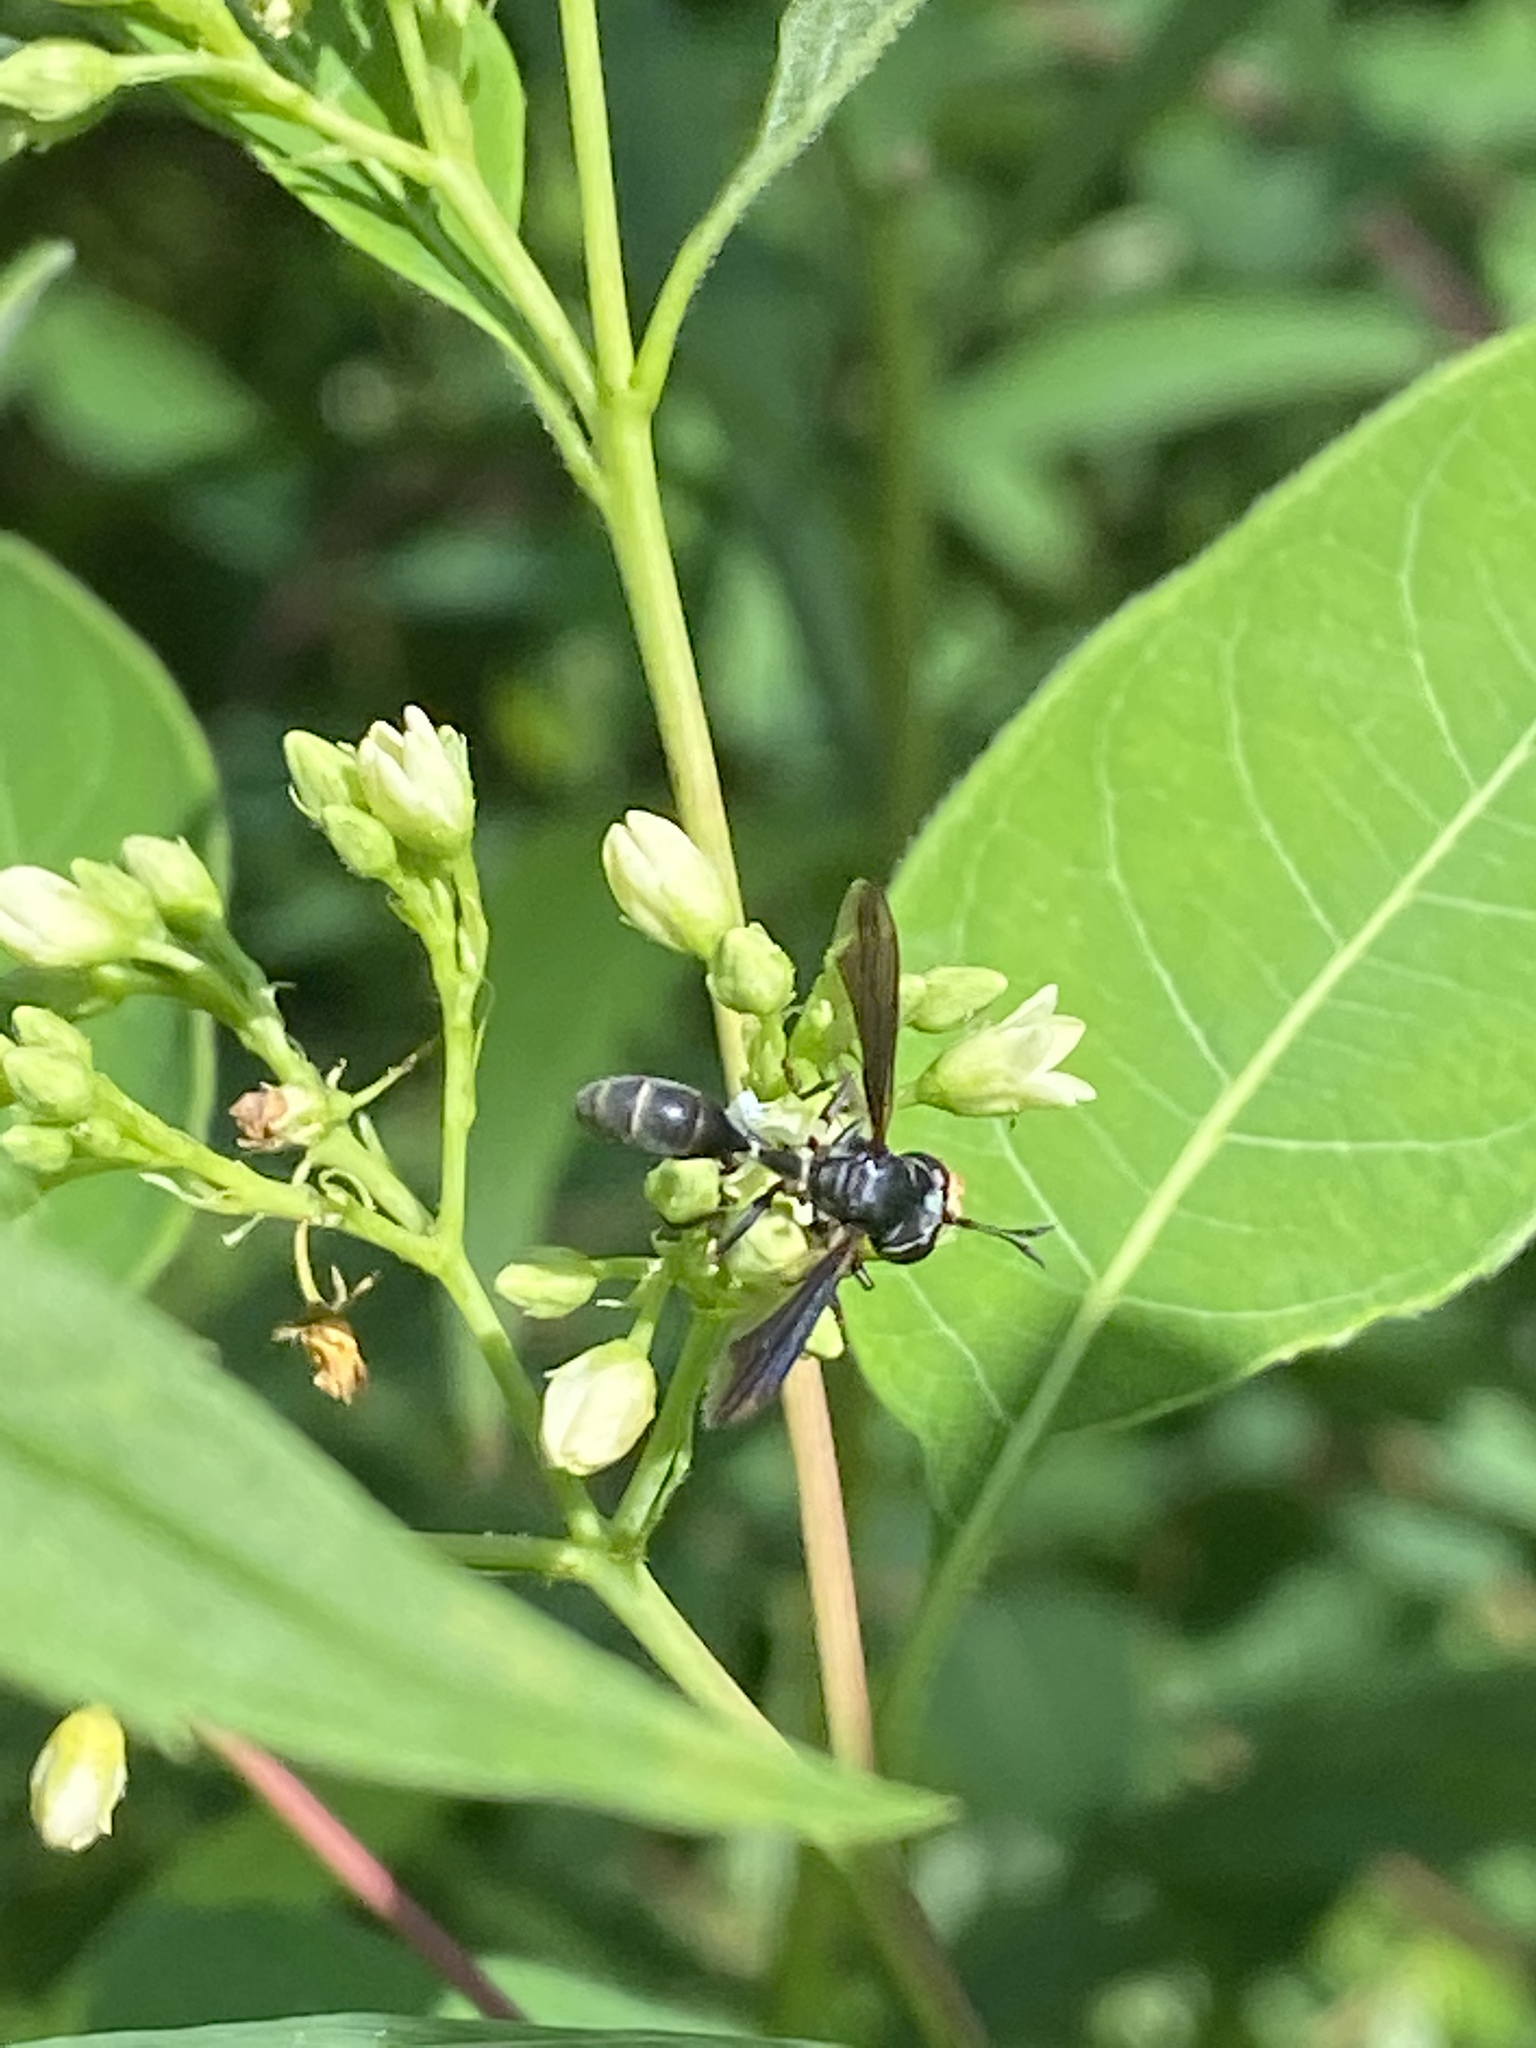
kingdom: Animalia
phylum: Arthropoda
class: Insecta
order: Diptera
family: Conopidae
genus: Physocephala
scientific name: Physocephala tibialis
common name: Common eastern physocephala
